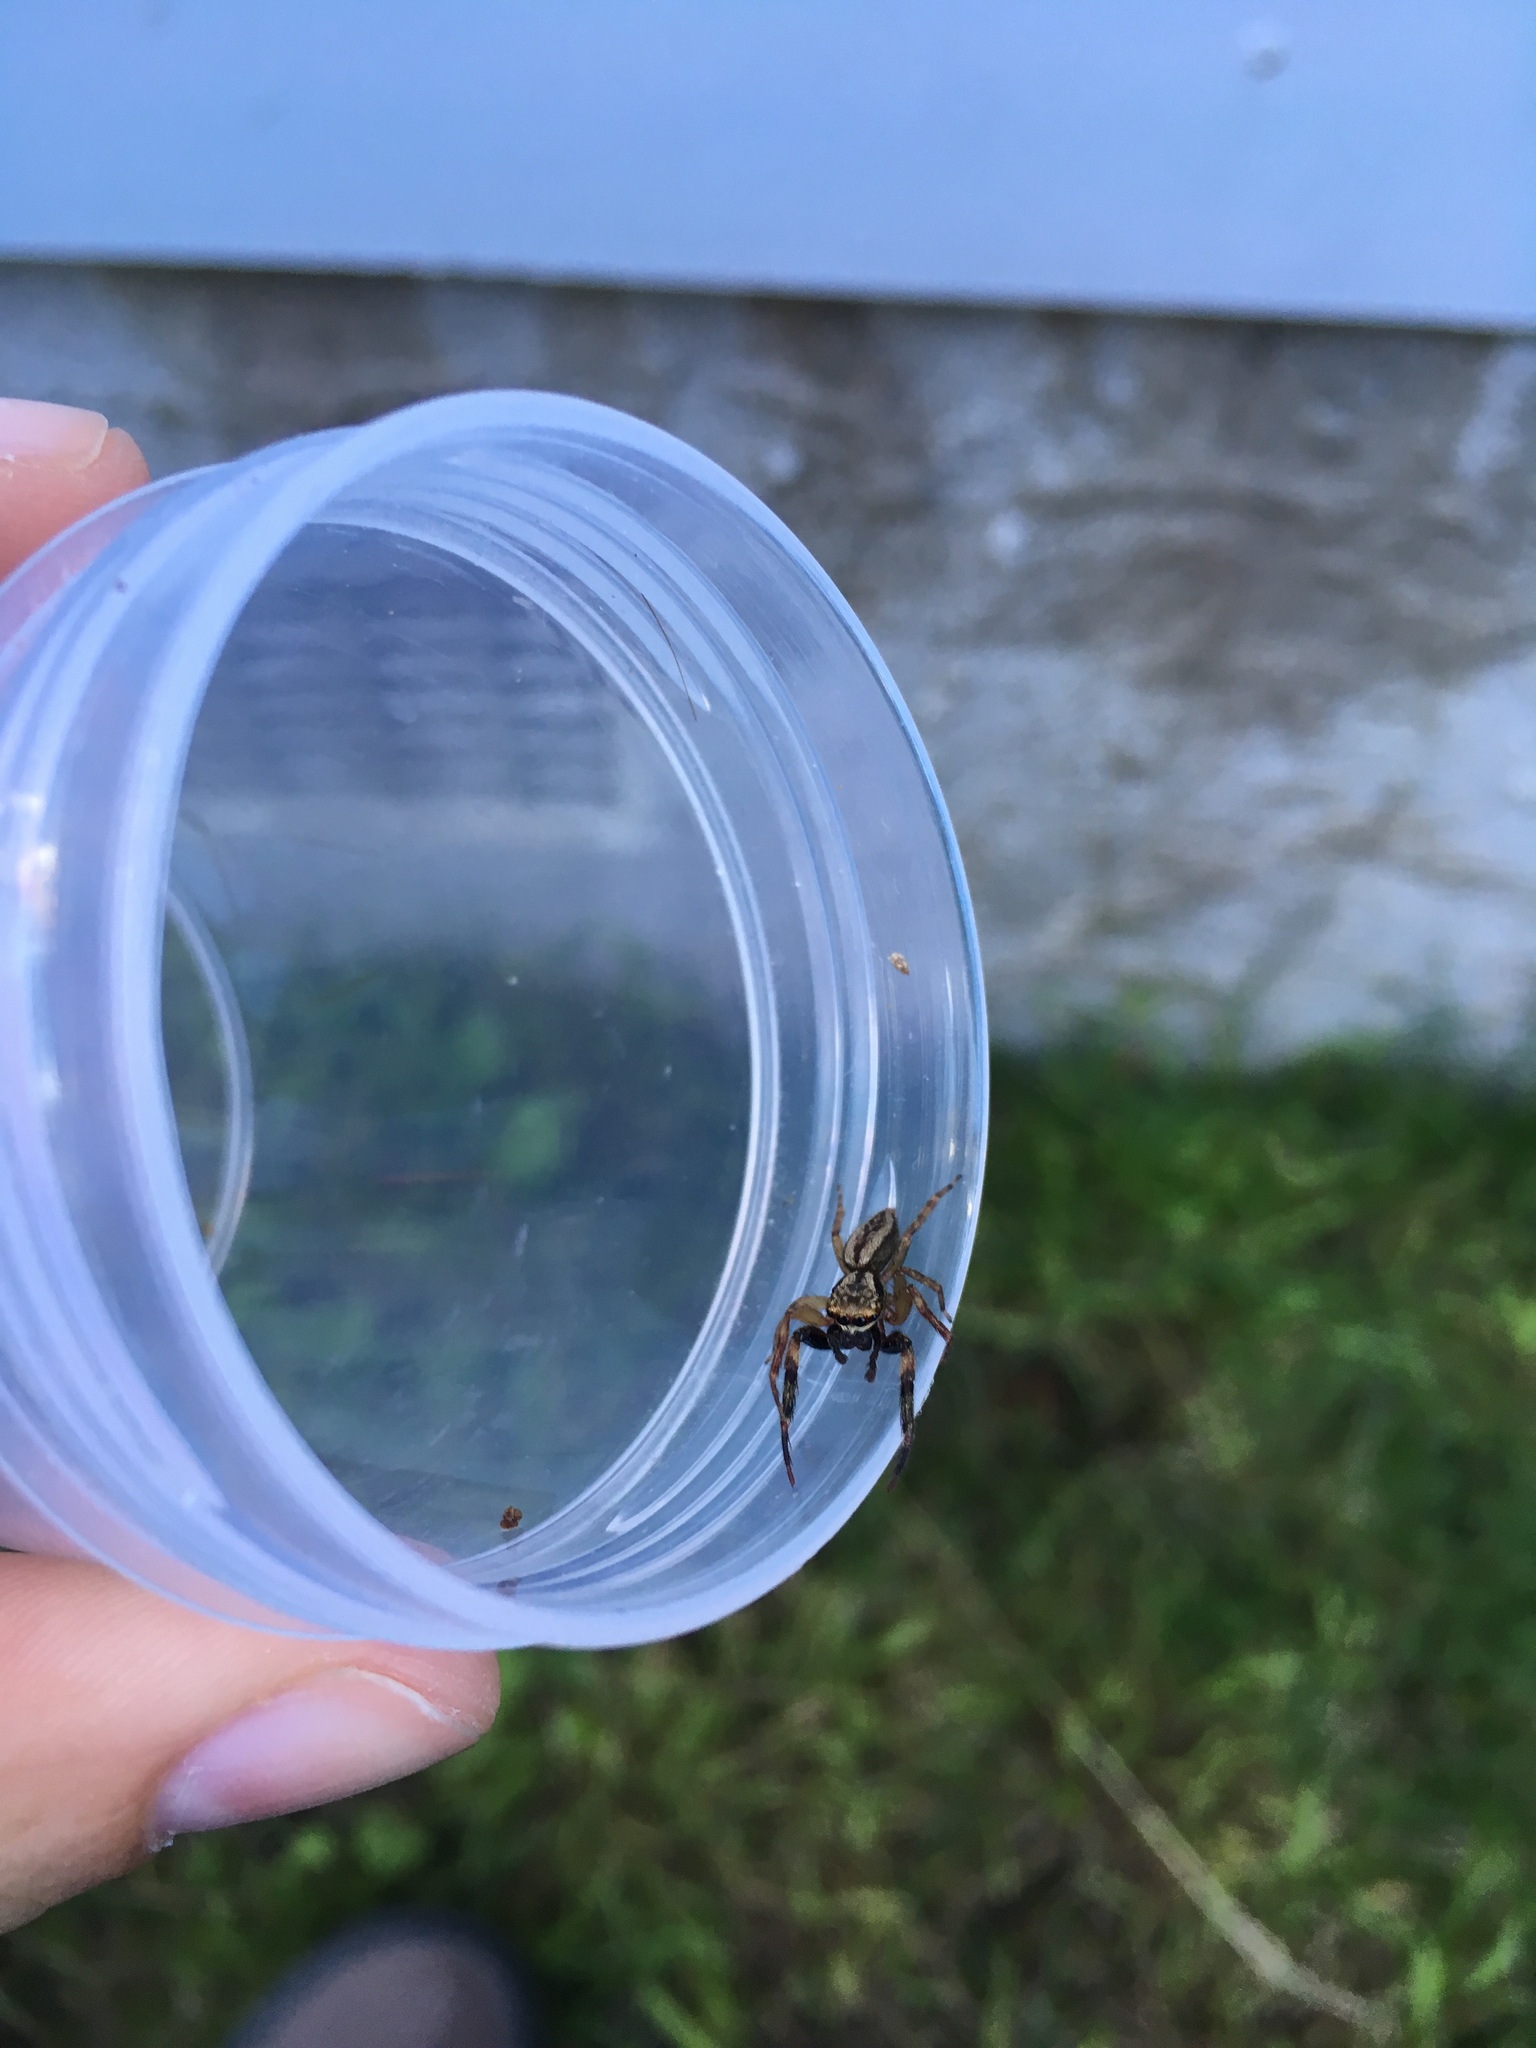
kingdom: Animalia
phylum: Arthropoda
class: Arachnida
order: Araneae
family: Salticidae
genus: Trite
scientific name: Trite auricoma
